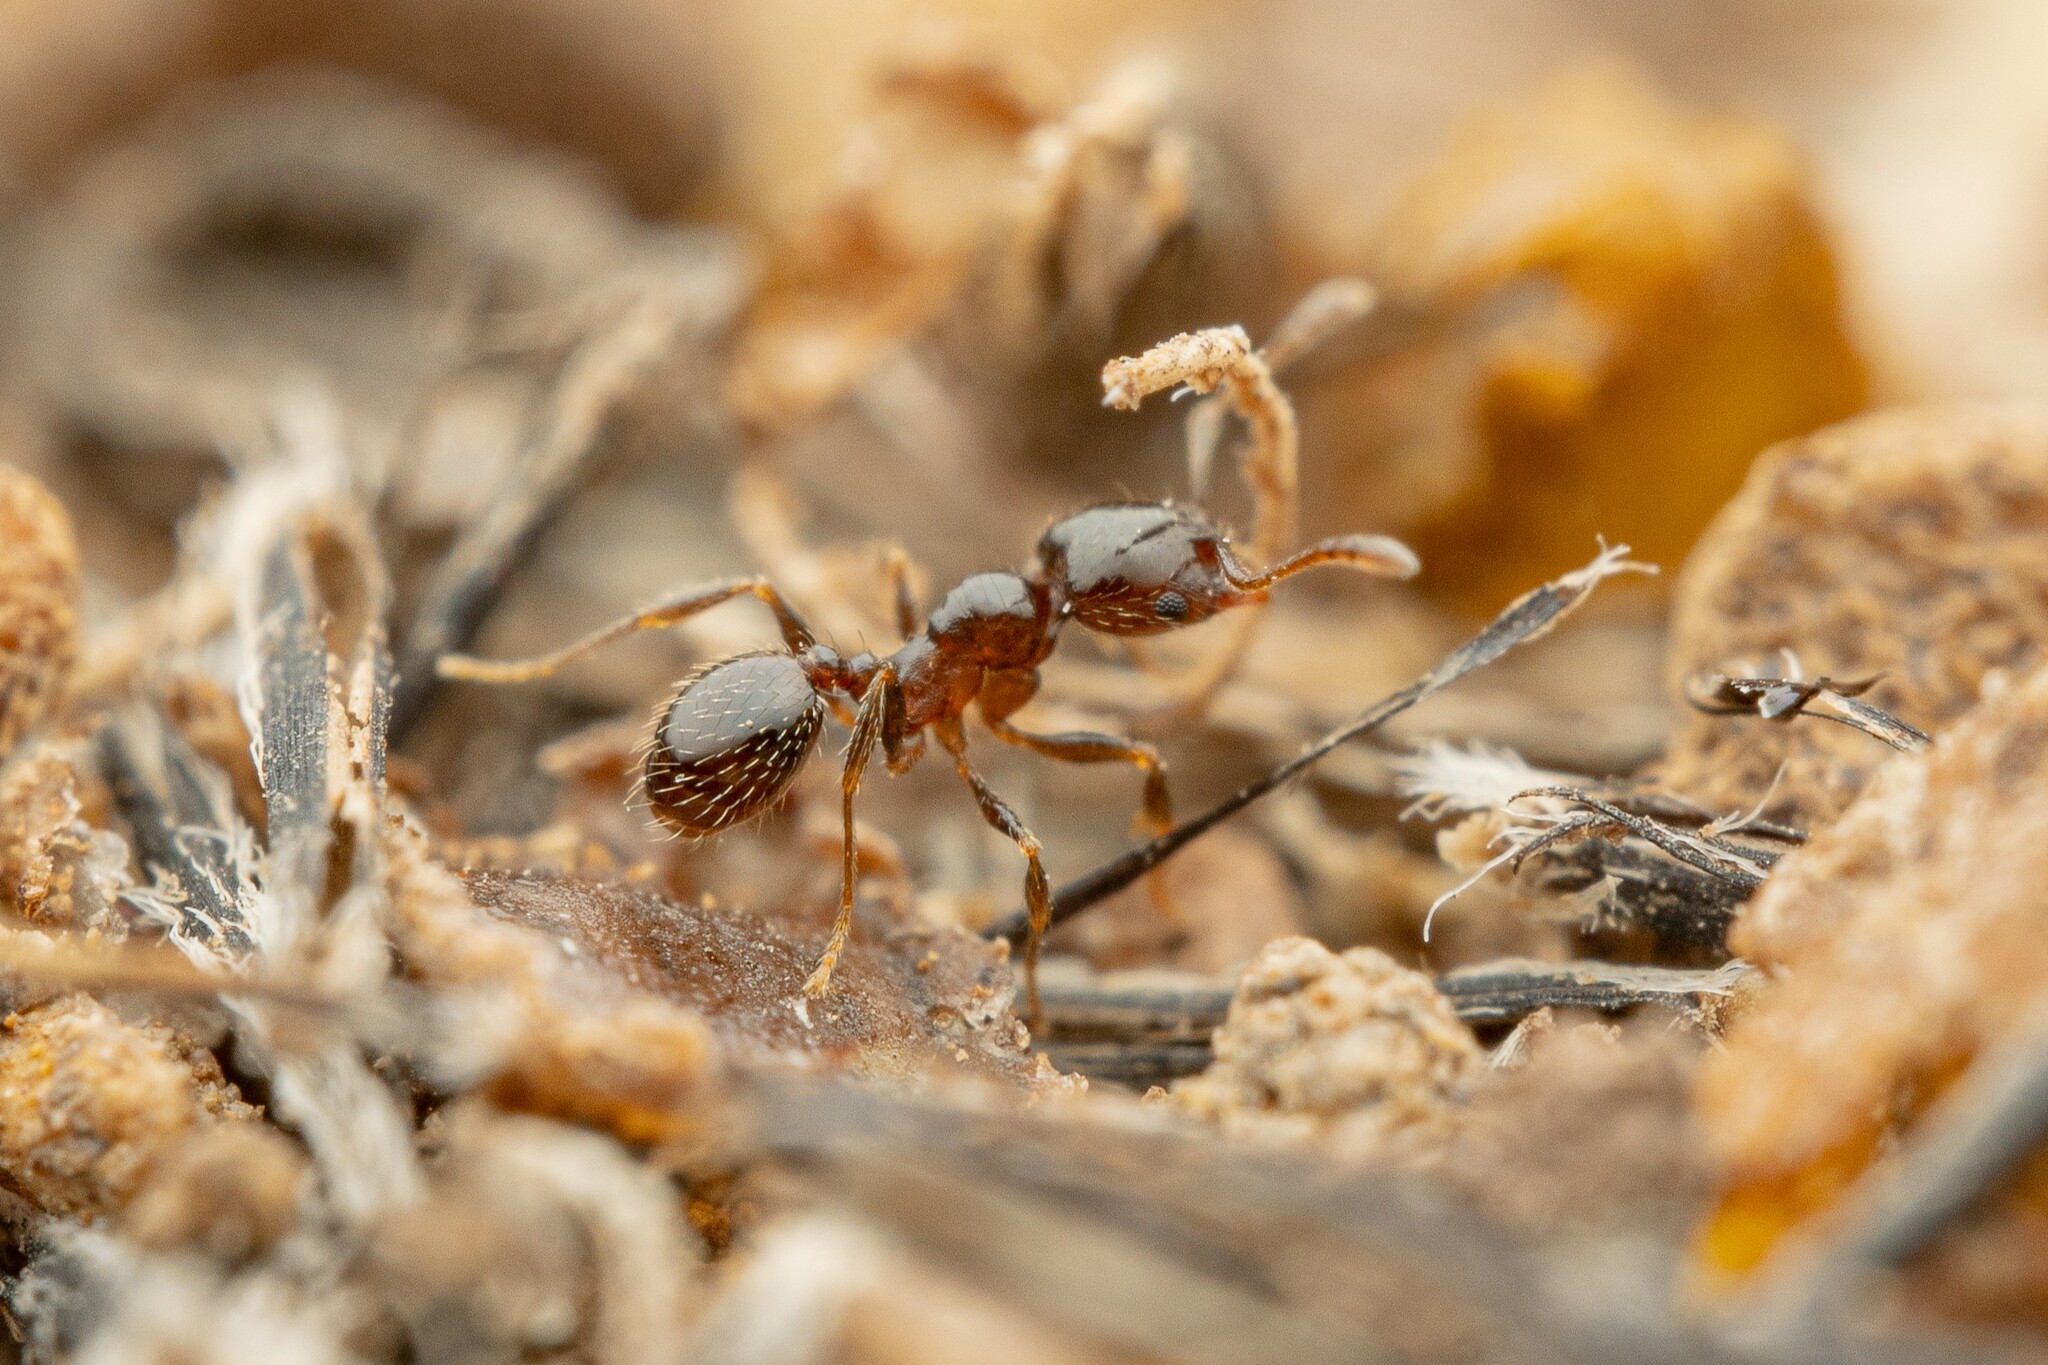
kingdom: Animalia
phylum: Arthropoda
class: Insecta
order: Hymenoptera
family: Formicidae
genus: Pheidole
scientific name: Pheidole bicarinata
